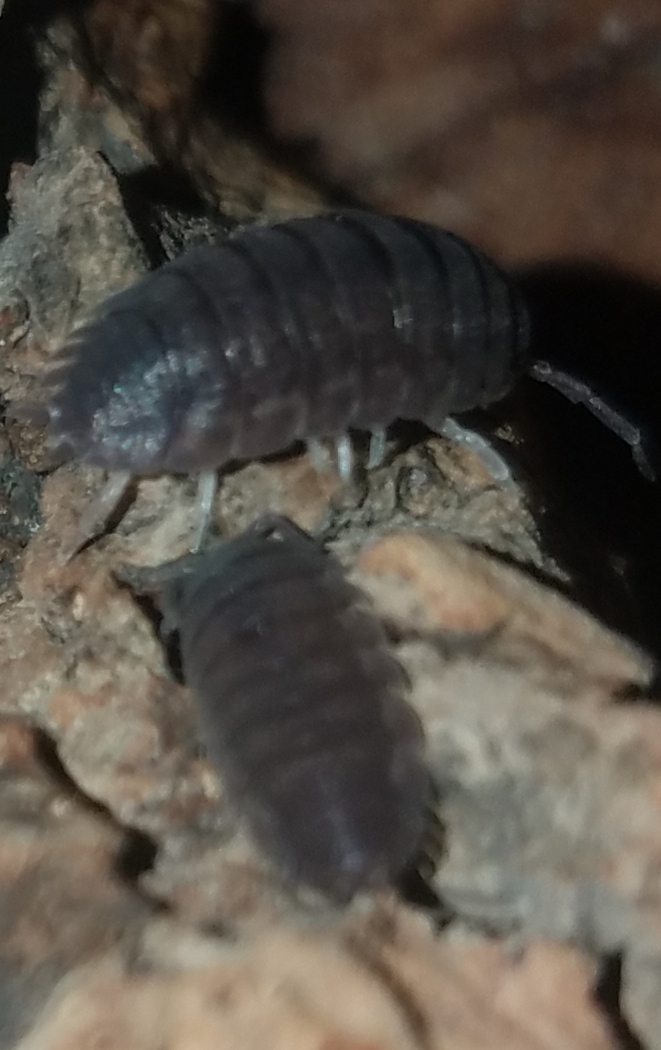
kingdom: Animalia
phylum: Arthropoda
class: Malacostraca
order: Isopoda
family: Porcellionidae
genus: Porcellio
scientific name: Porcellio scaber
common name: Common rough woodlouse
